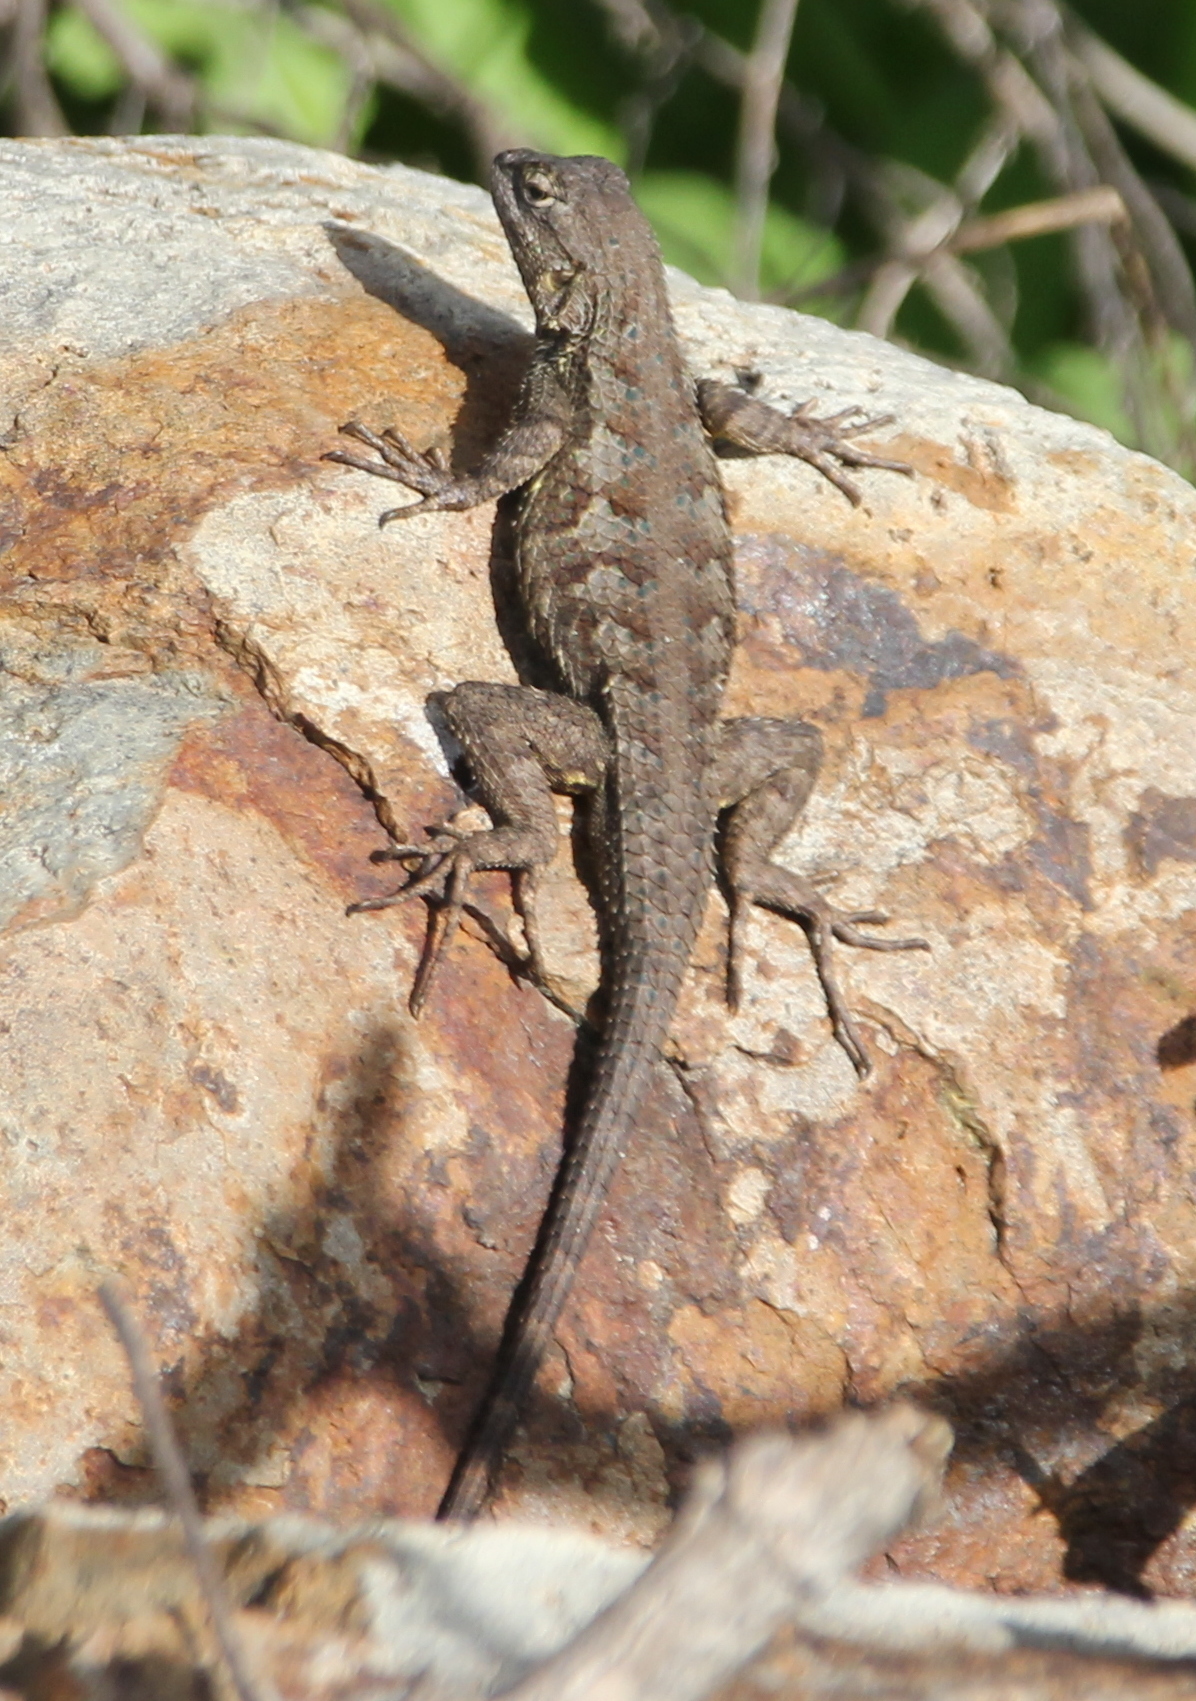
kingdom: Animalia
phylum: Chordata
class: Squamata
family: Phrynosomatidae
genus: Sceloporus
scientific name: Sceloporus occidentalis
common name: Western fence lizard
